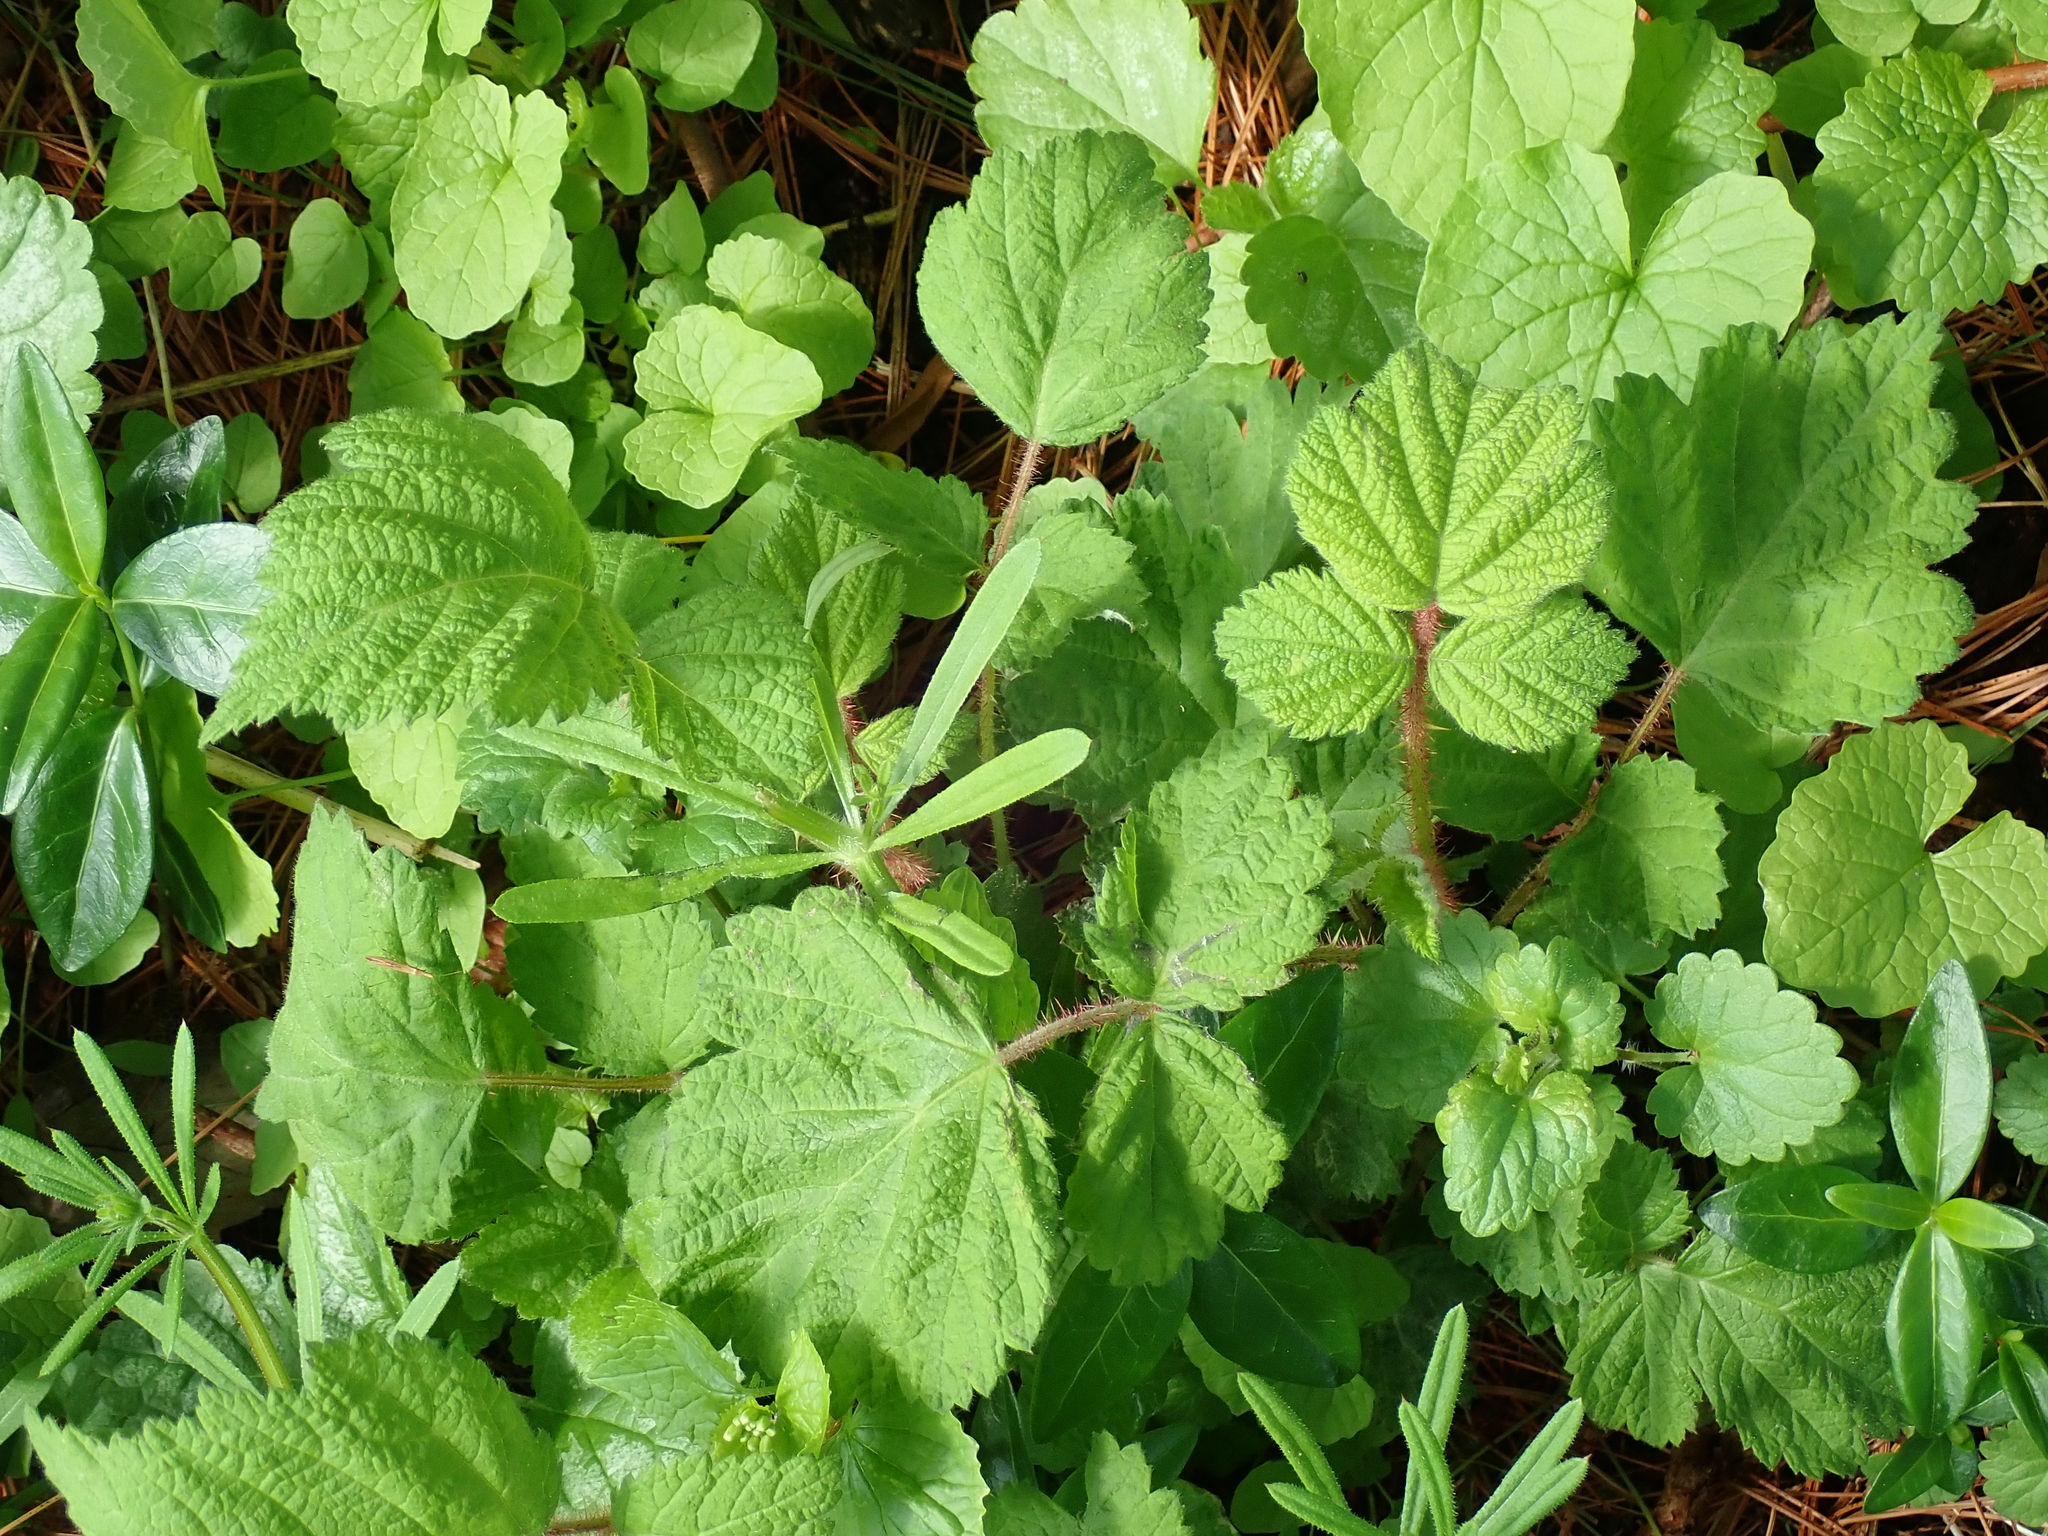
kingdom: Plantae
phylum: Tracheophyta
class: Magnoliopsida
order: Rosales
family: Rosaceae
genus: Rubus
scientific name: Rubus phoenicolasius
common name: Japanese wineberry
